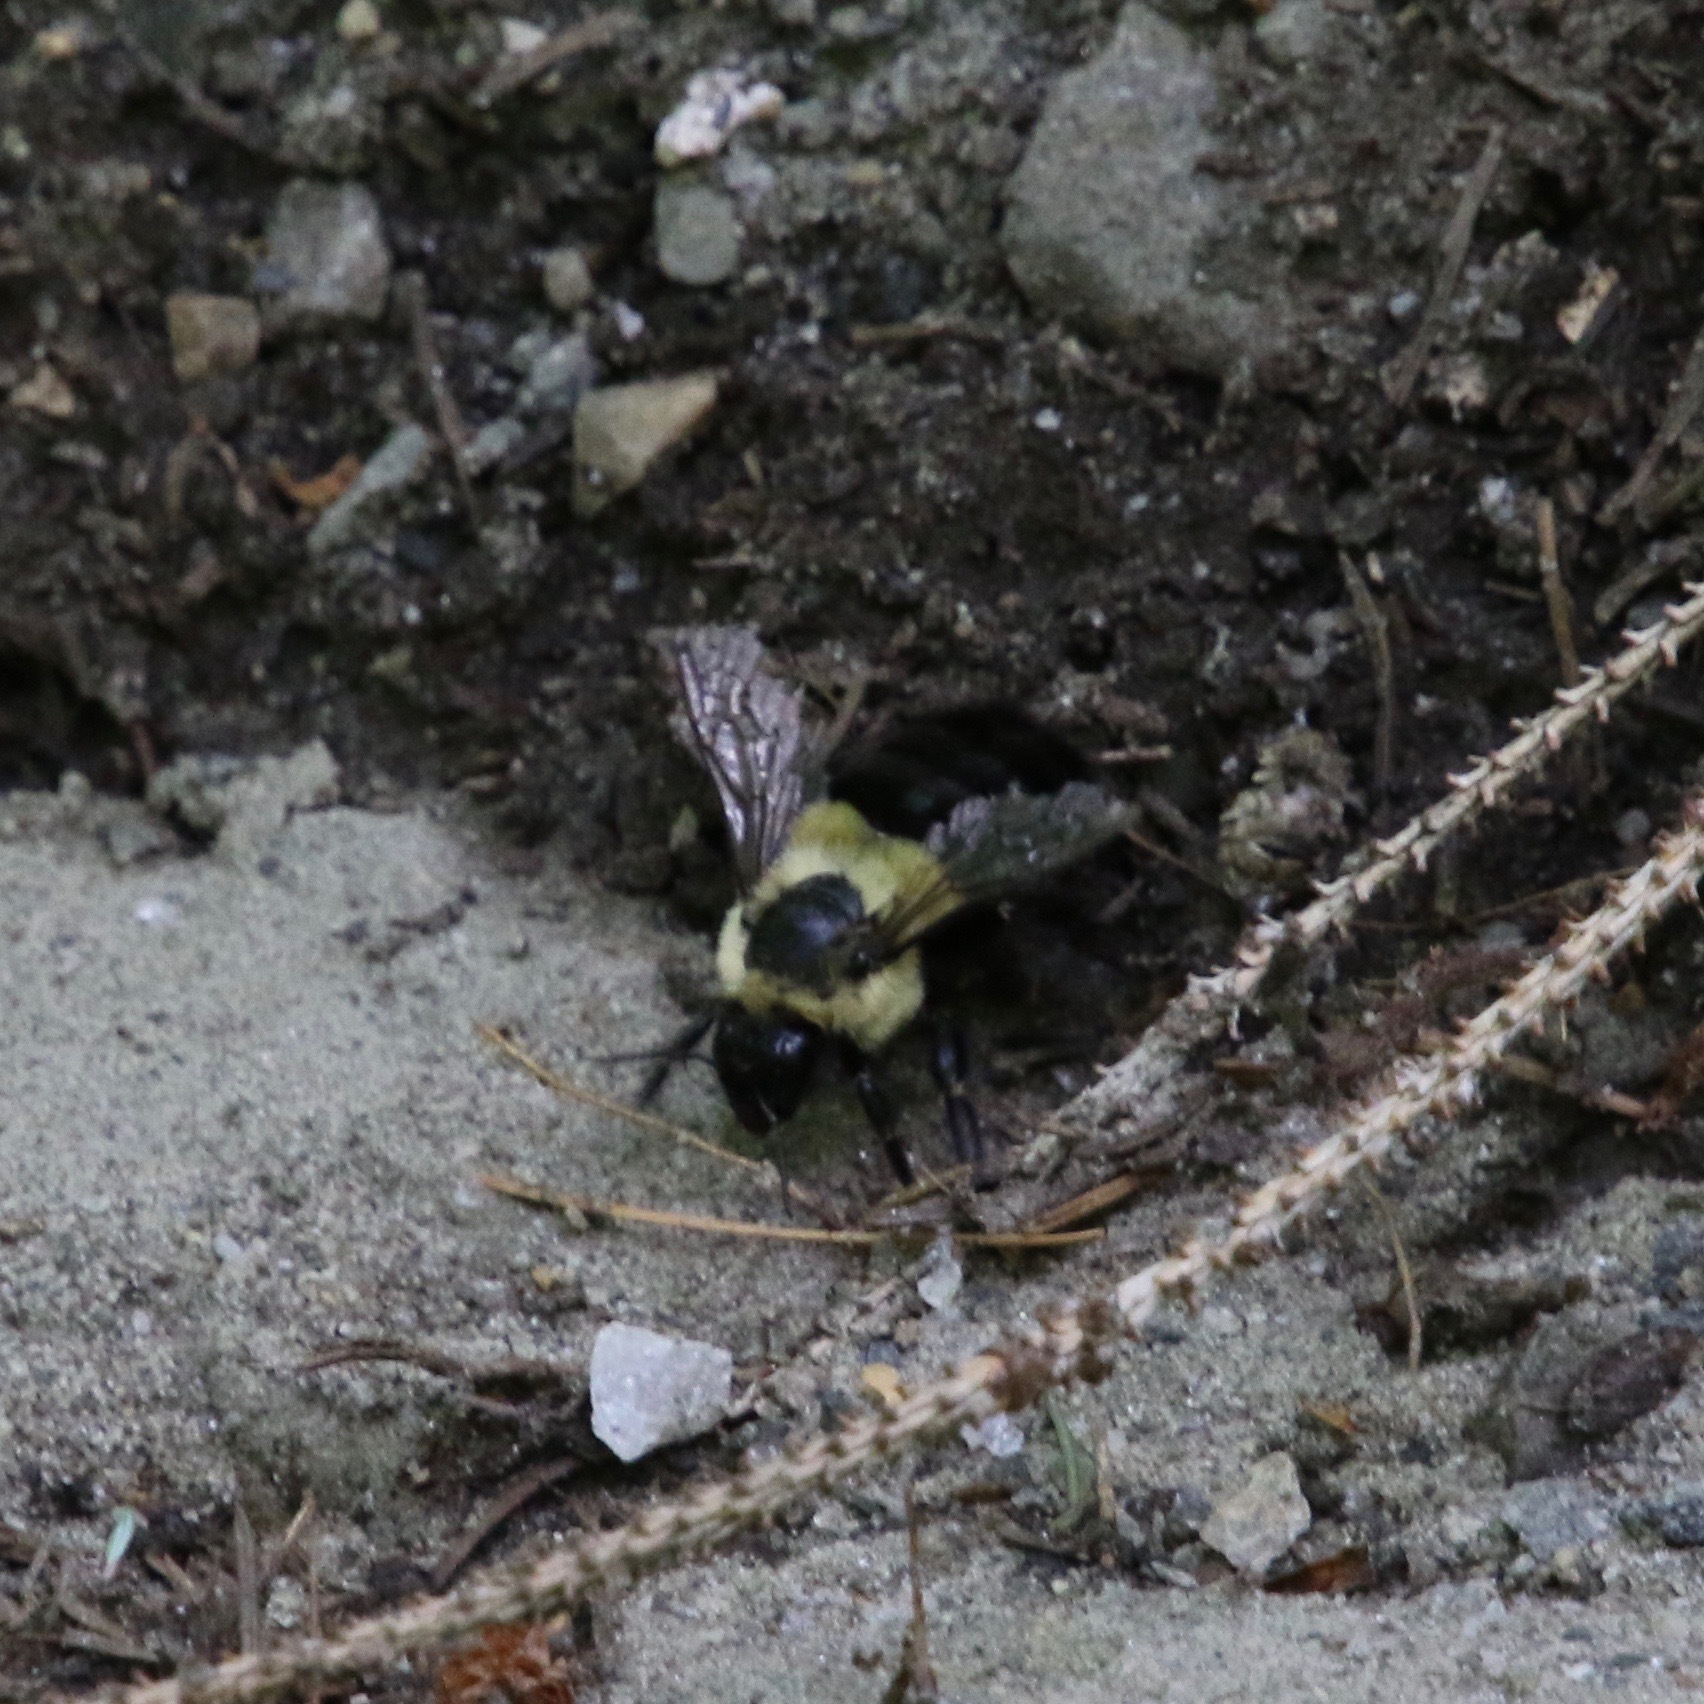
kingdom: Animalia
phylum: Arthropoda
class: Insecta
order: Hymenoptera
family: Apidae
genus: Bombus
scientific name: Bombus impatiens
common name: Common eastern bumble bee
